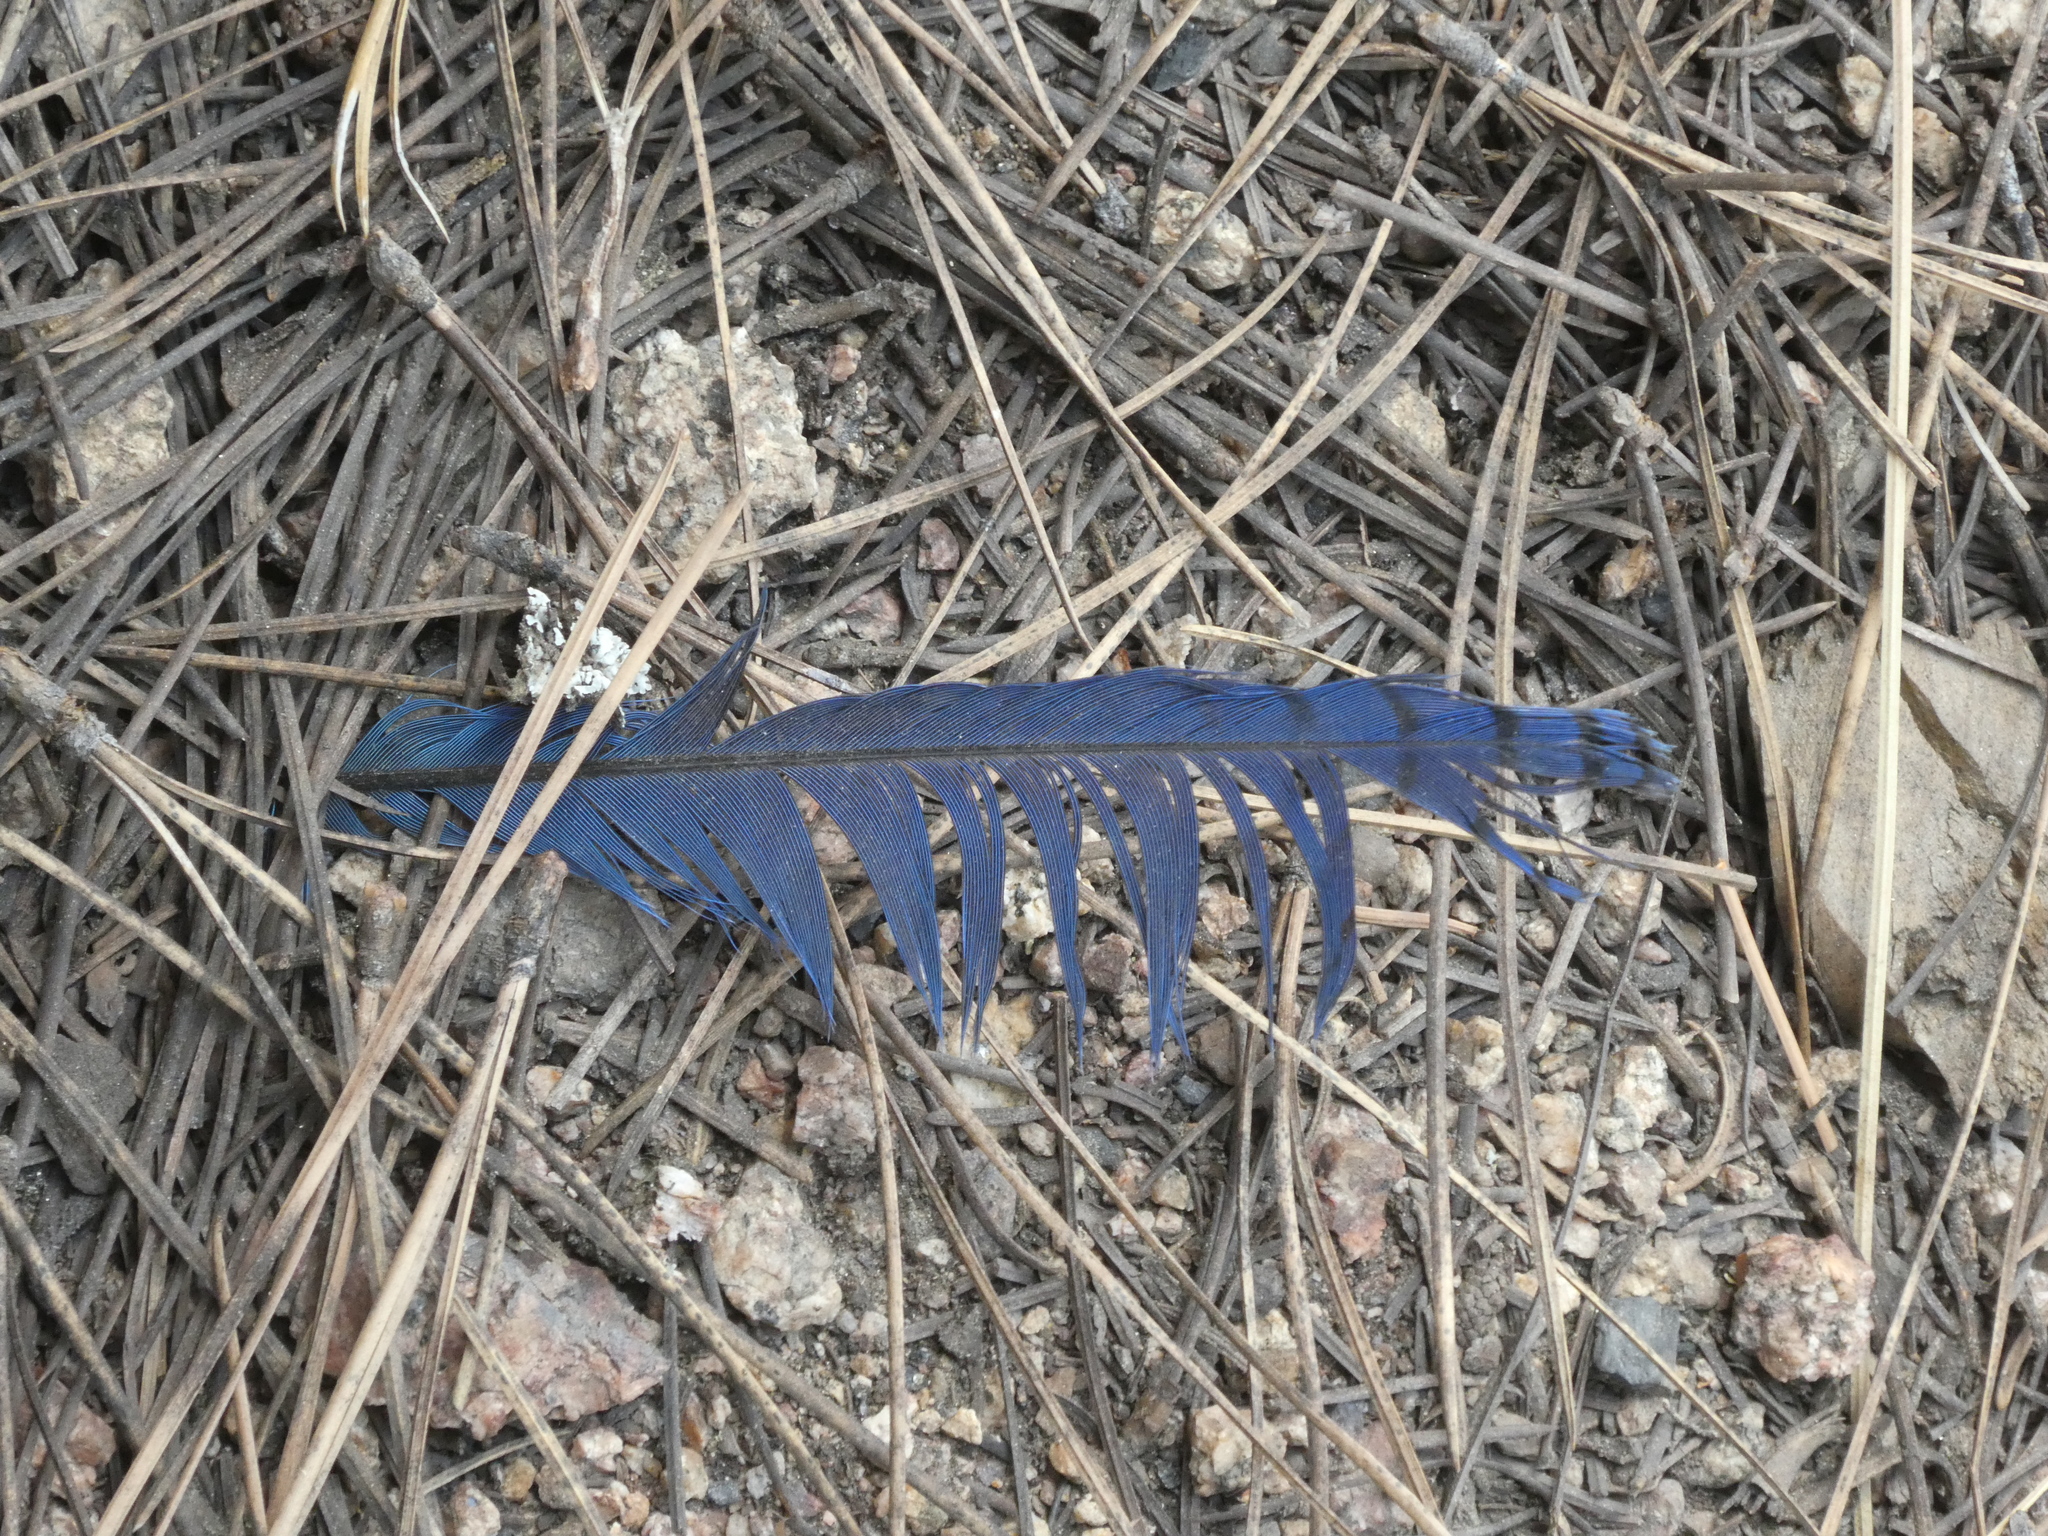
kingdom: Animalia
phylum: Chordata
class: Aves
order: Passeriformes
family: Corvidae
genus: Cyanocitta
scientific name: Cyanocitta stelleri
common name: Steller's jay
